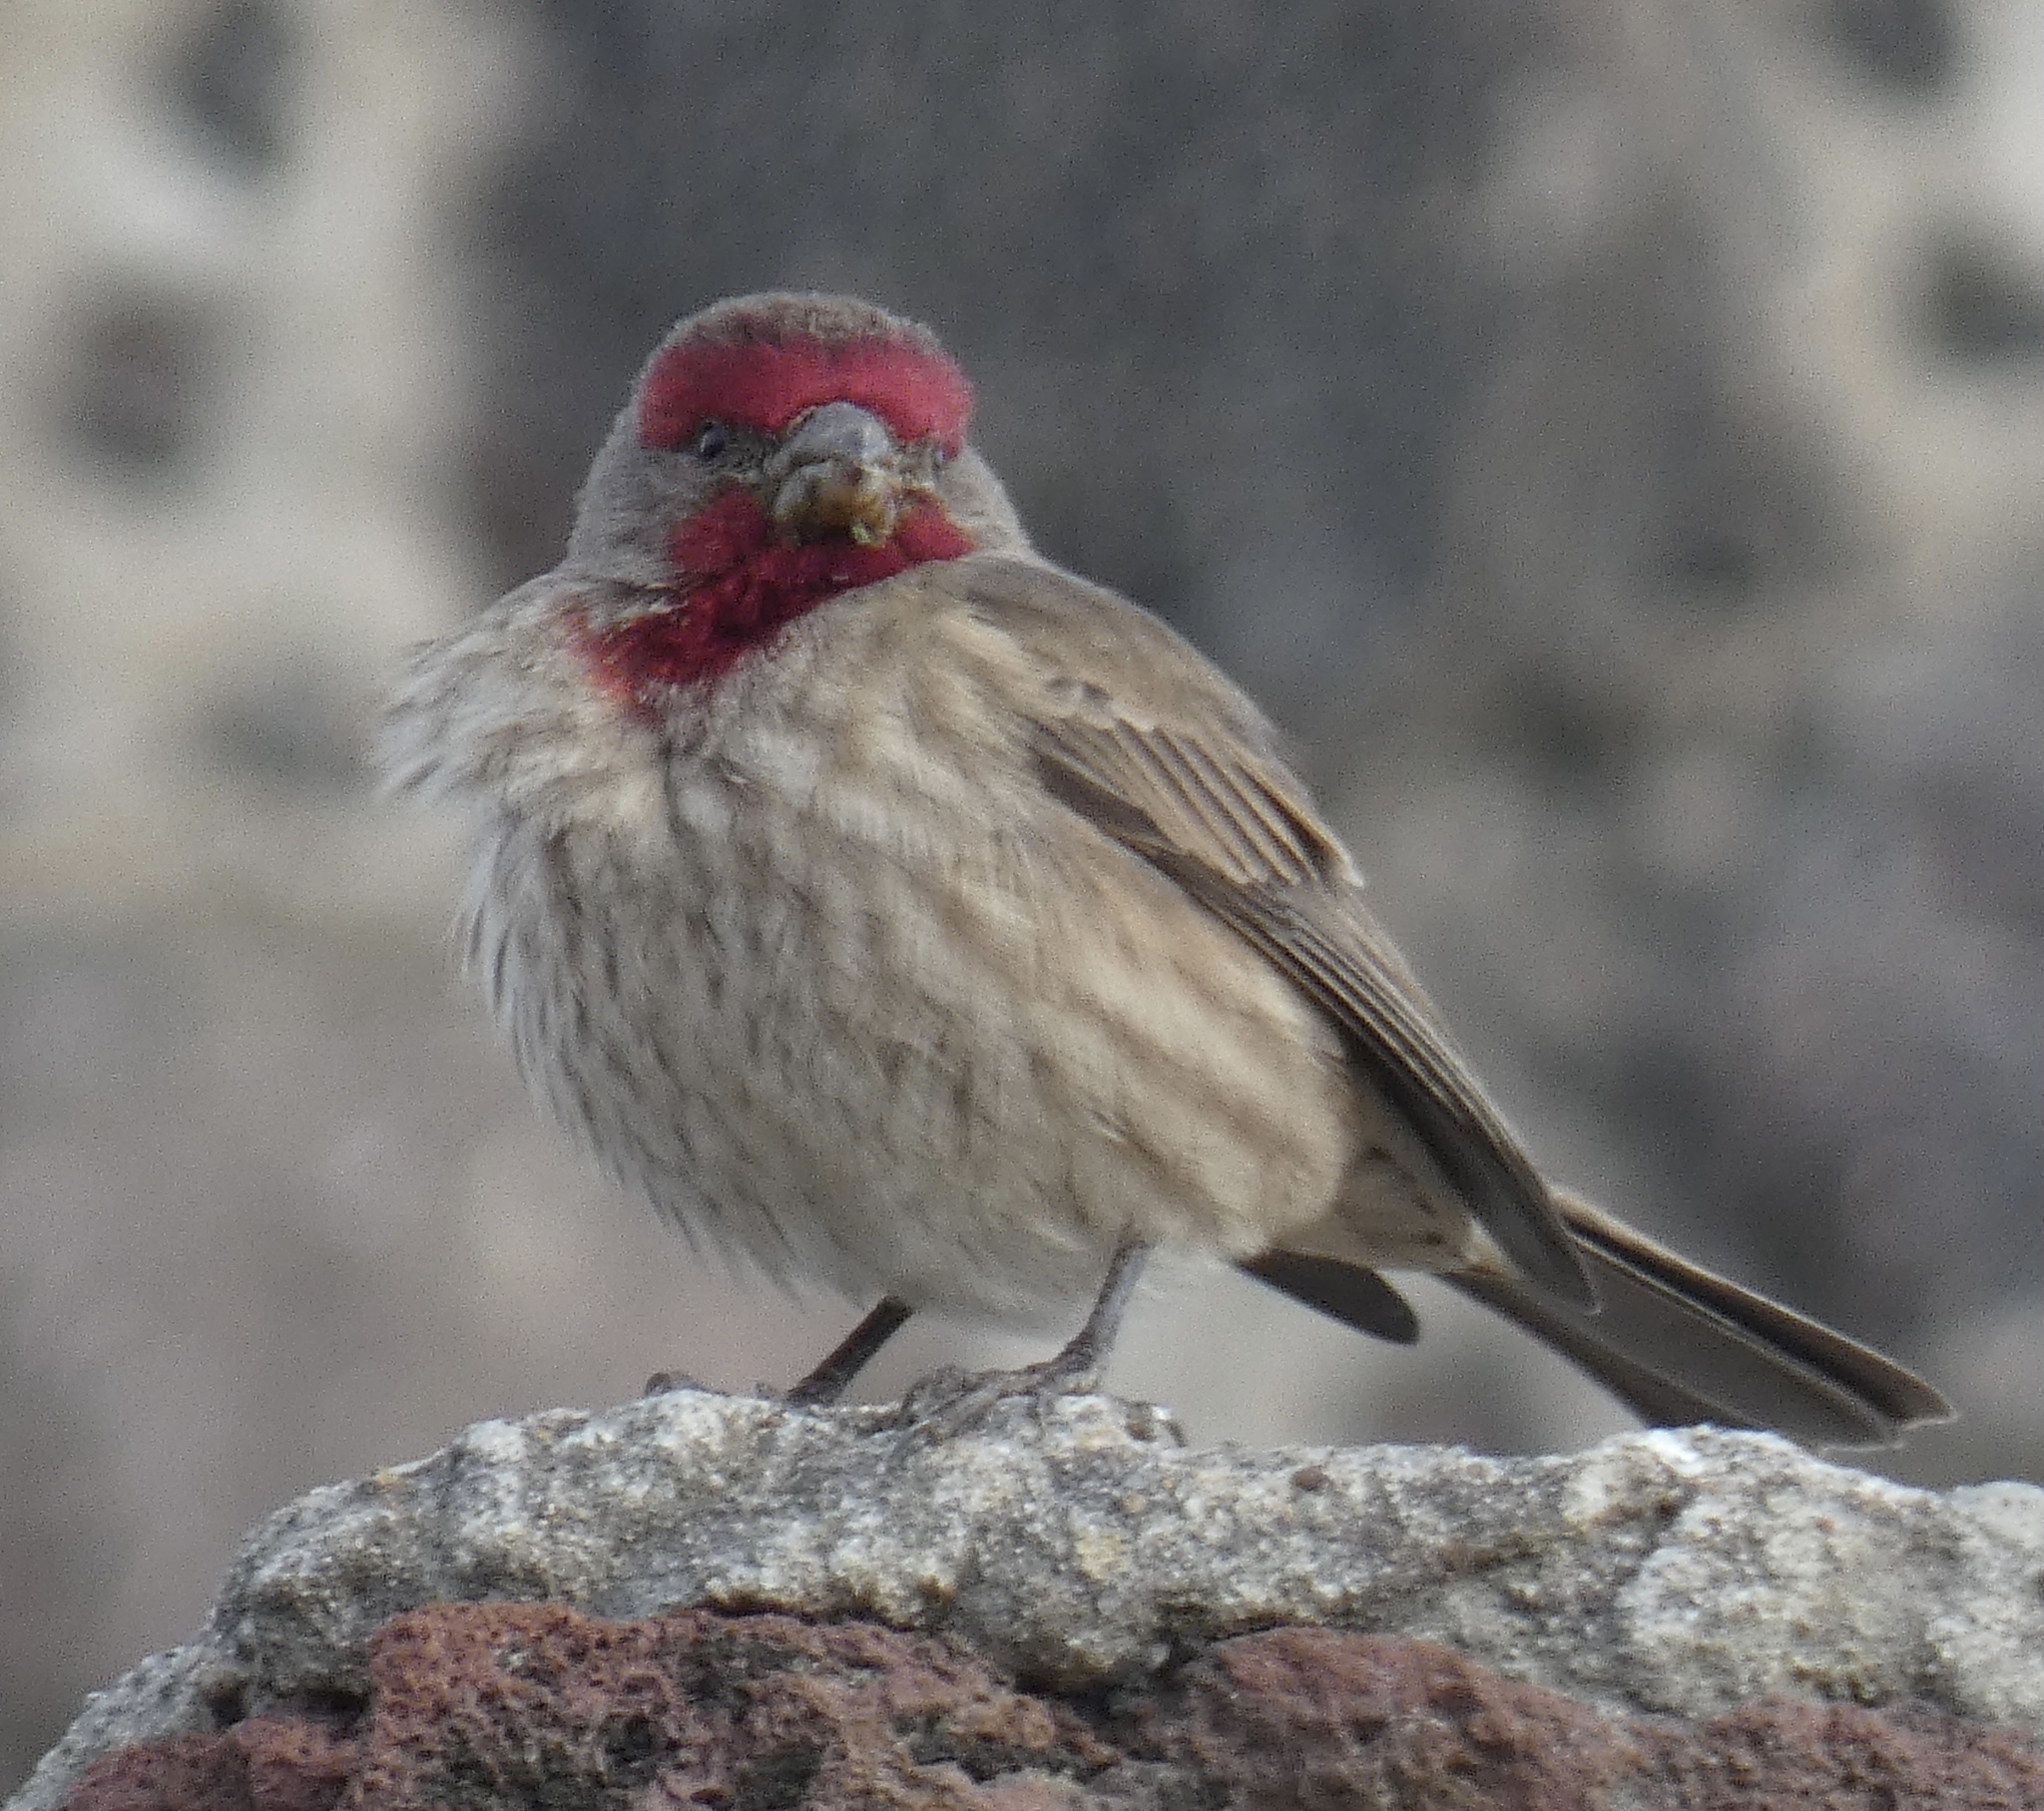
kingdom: Animalia
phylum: Chordata
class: Aves
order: Passeriformes
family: Fringillidae
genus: Haemorhous
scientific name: Haemorhous mexicanus
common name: House finch
